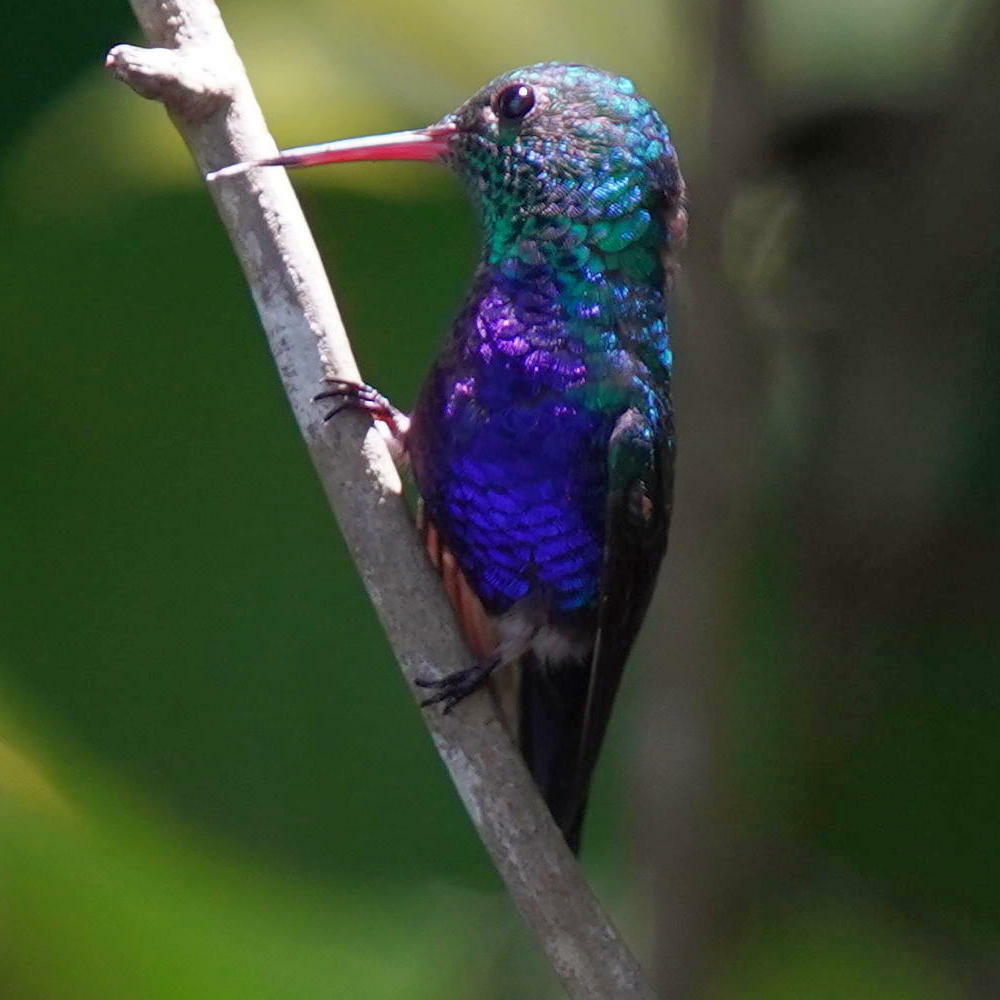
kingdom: Animalia
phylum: Chordata
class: Aves
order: Apodiformes
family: Trochilidae
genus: Chlorestes
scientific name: Chlorestes julie
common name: Violet-bellied hummingbird
